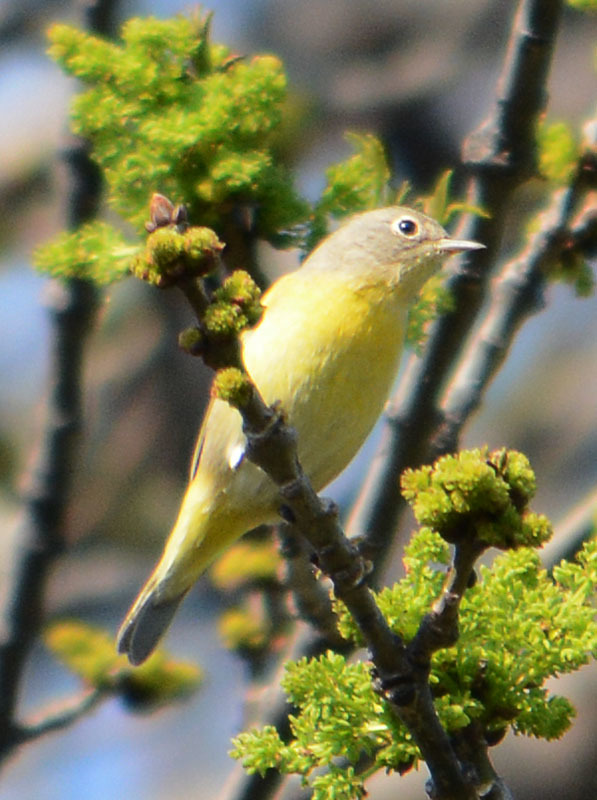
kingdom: Animalia
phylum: Chordata
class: Aves
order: Passeriformes
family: Parulidae
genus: Leiothlypis
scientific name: Leiothlypis ruficapilla
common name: Nashville warbler
